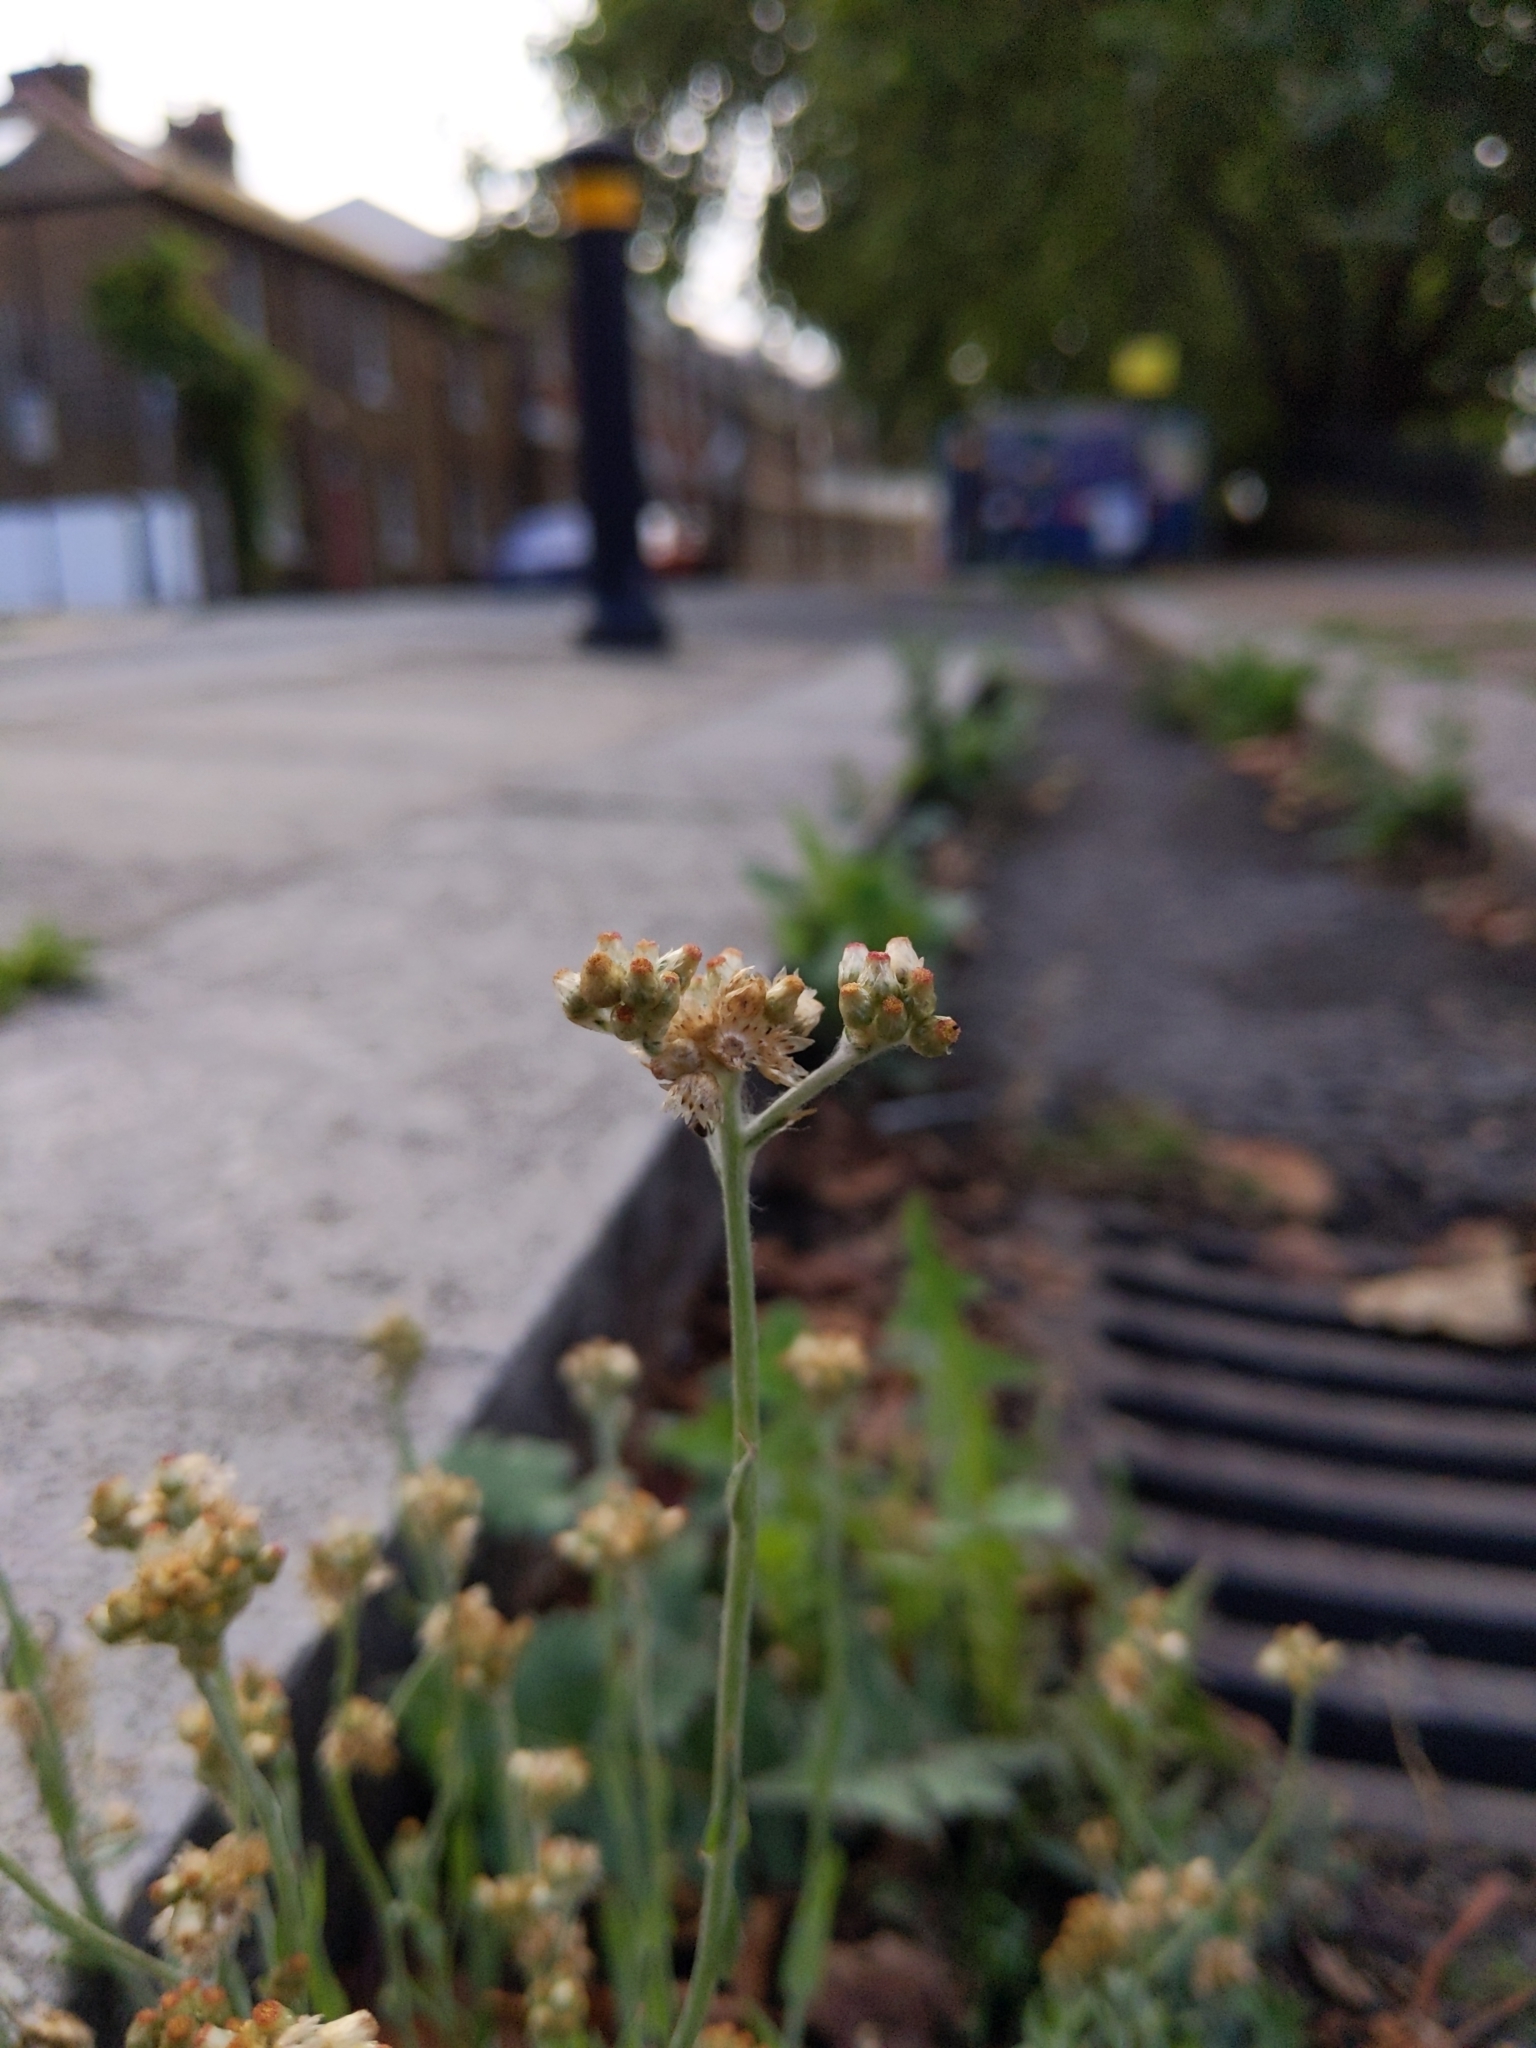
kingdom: Plantae
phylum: Tracheophyta
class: Magnoliopsida
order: Asterales
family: Asteraceae
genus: Helichrysum
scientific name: Helichrysum luteoalbum
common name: Daisy
